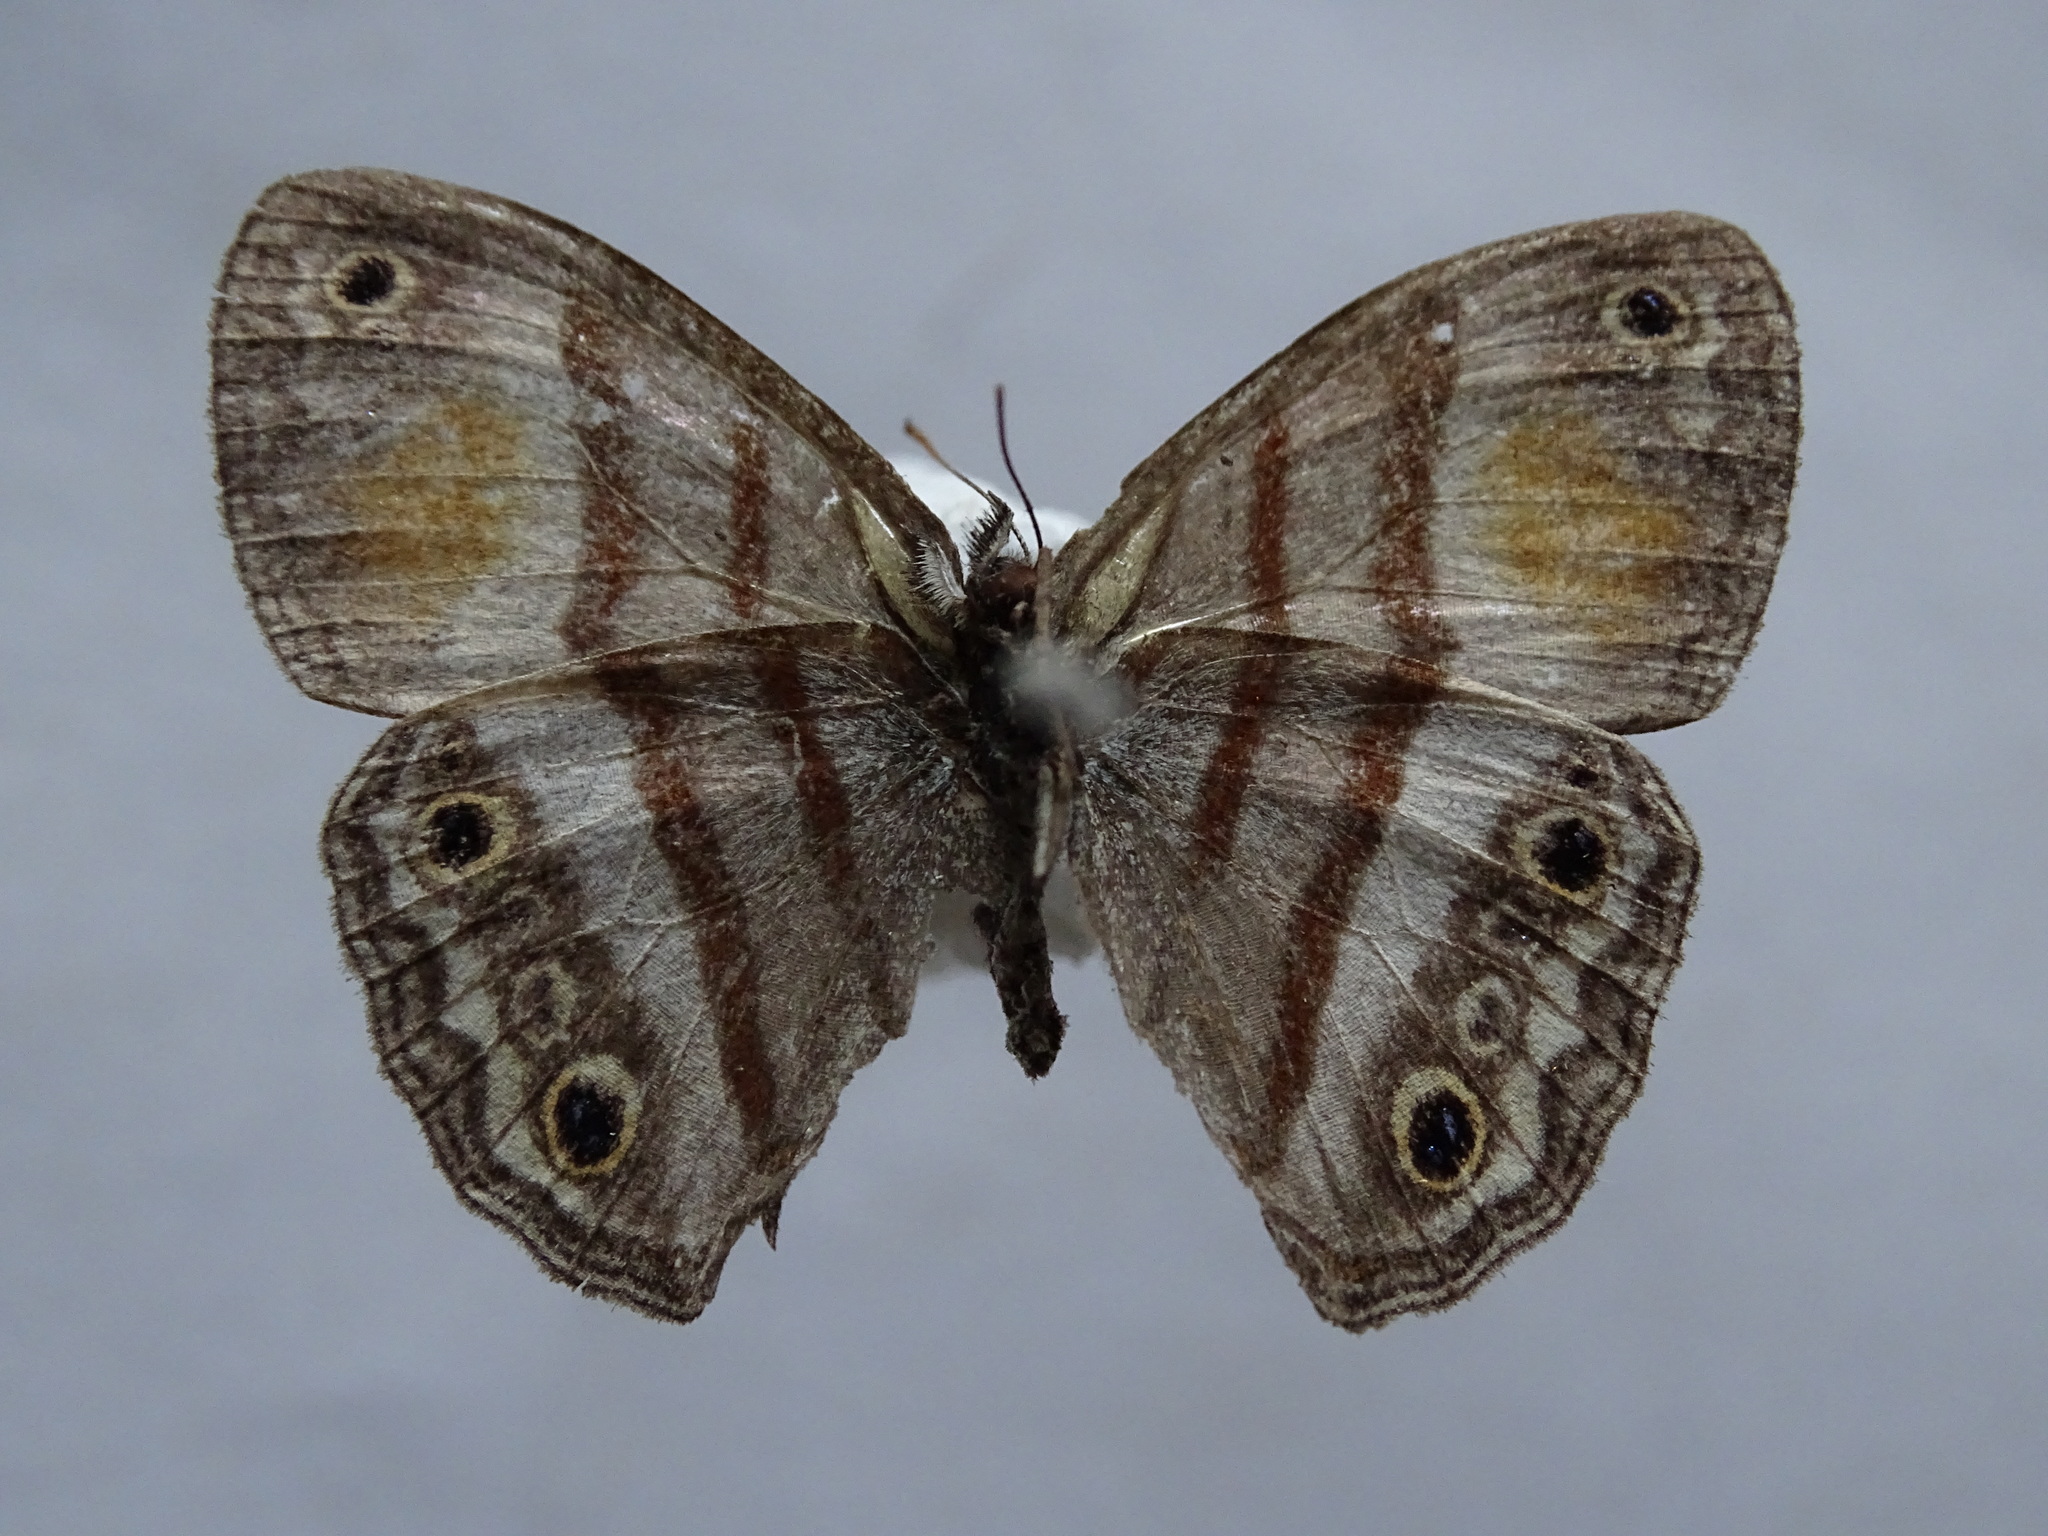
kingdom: Animalia
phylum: Arthropoda
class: Insecta
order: Lepidoptera
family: Nymphalidae
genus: Paryphthimoides
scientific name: Paryphthimoides
